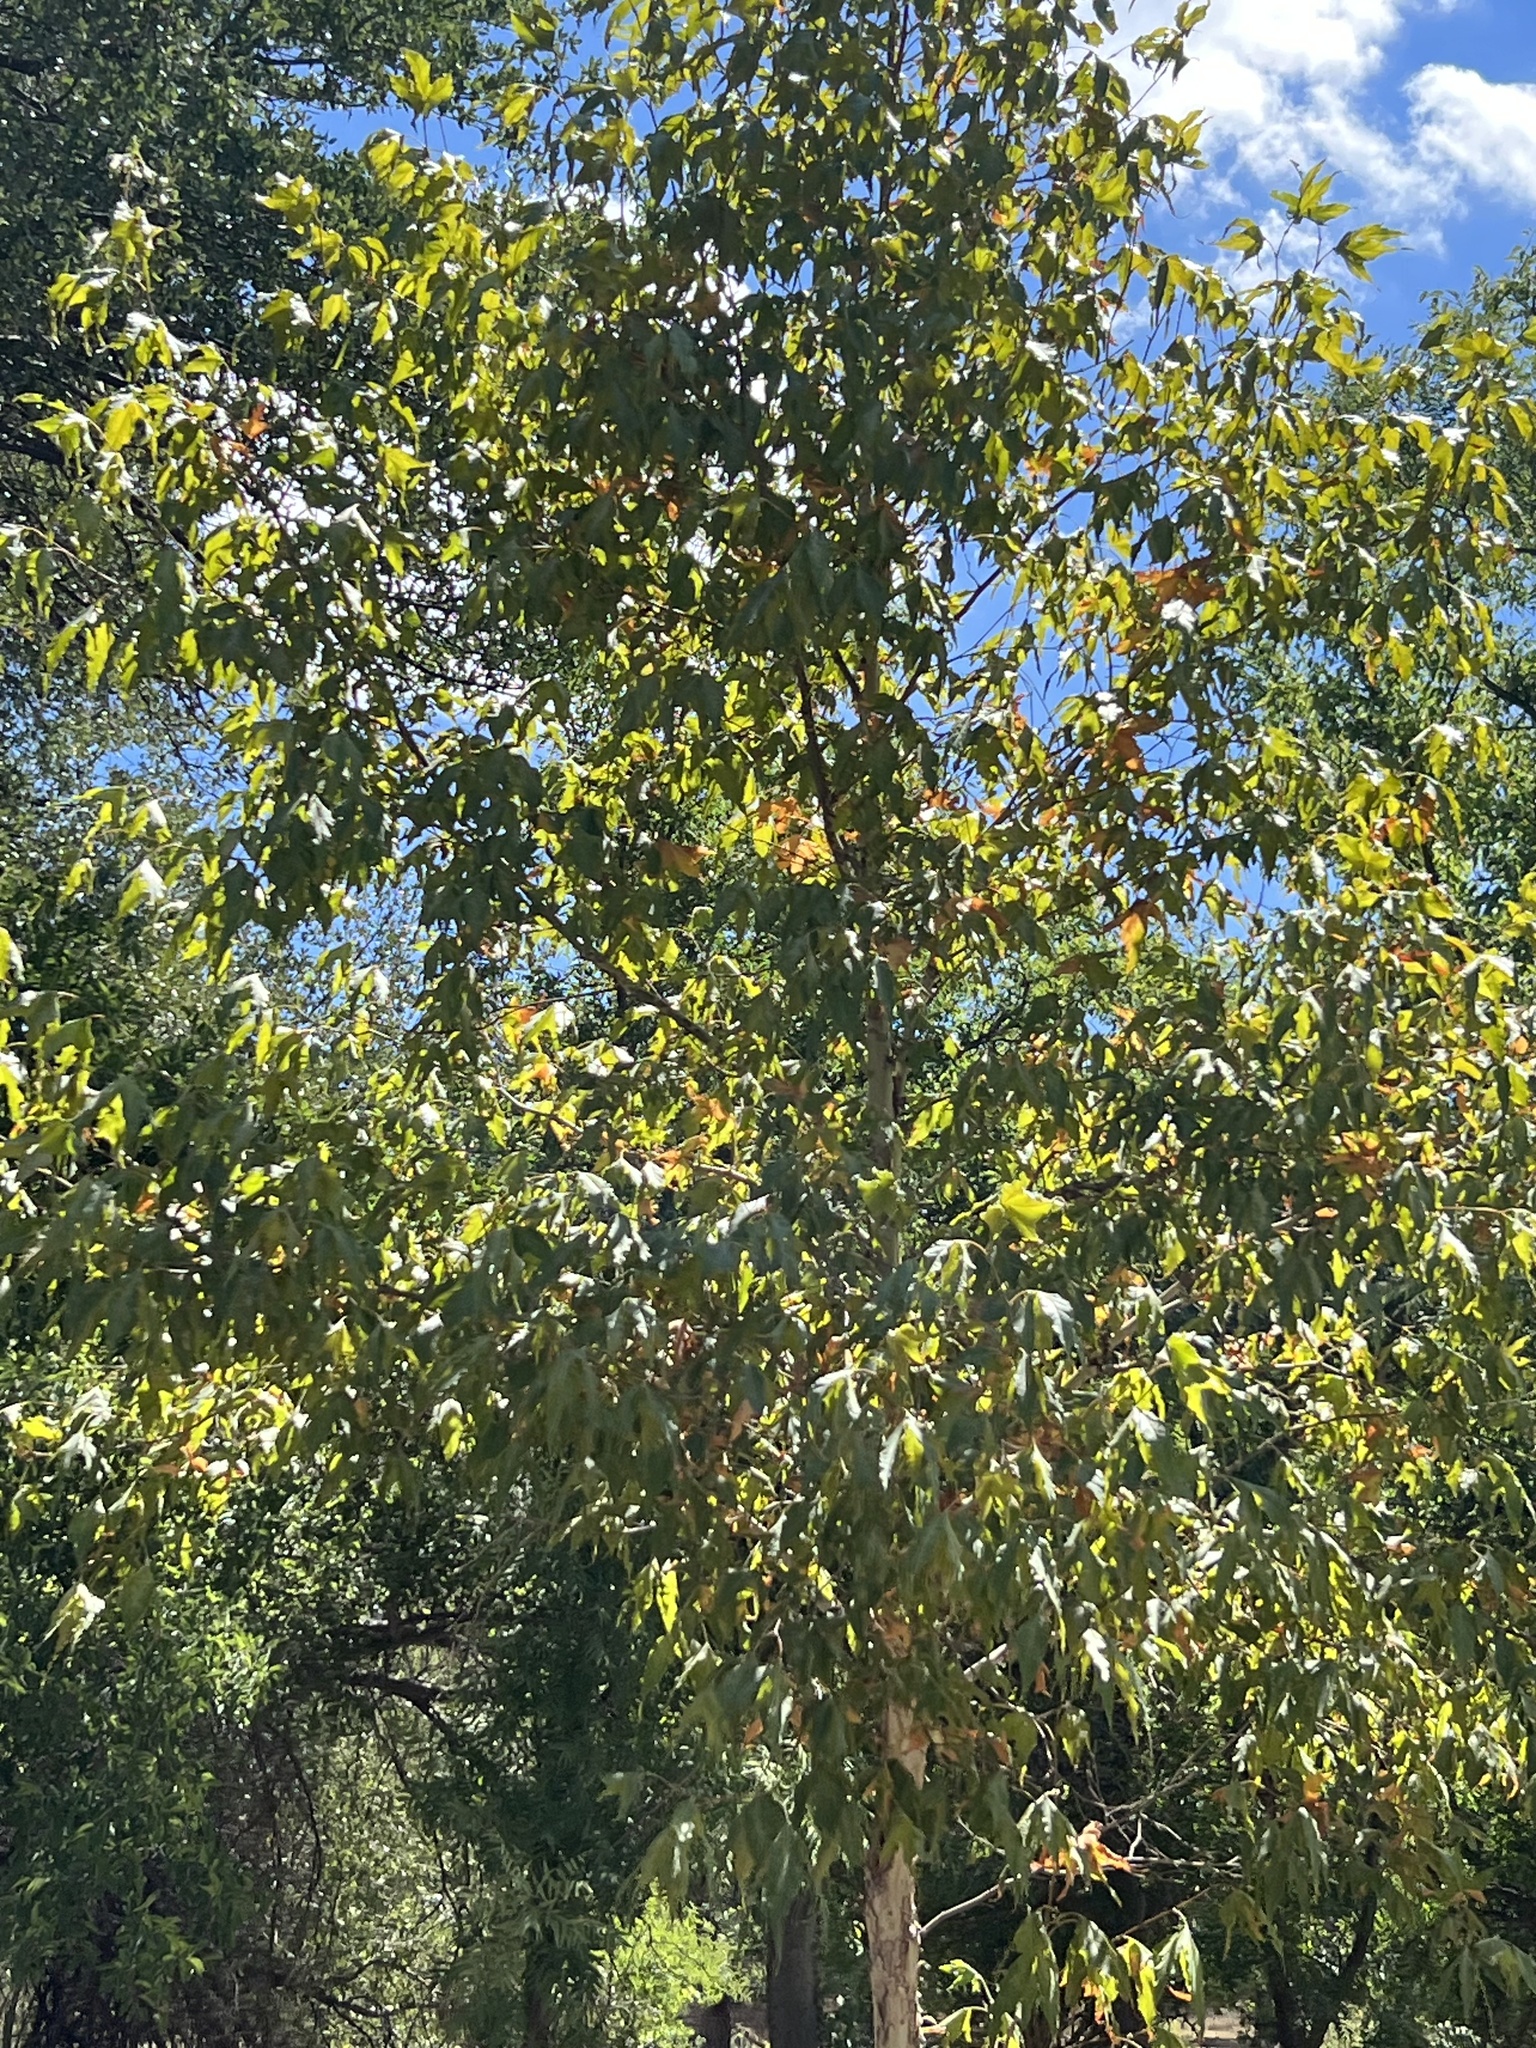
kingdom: Plantae
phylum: Tracheophyta
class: Magnoliopsida
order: Proteales
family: Platanaceae
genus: Platanus
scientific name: Platanus wrightii
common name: Arizona sycamore
